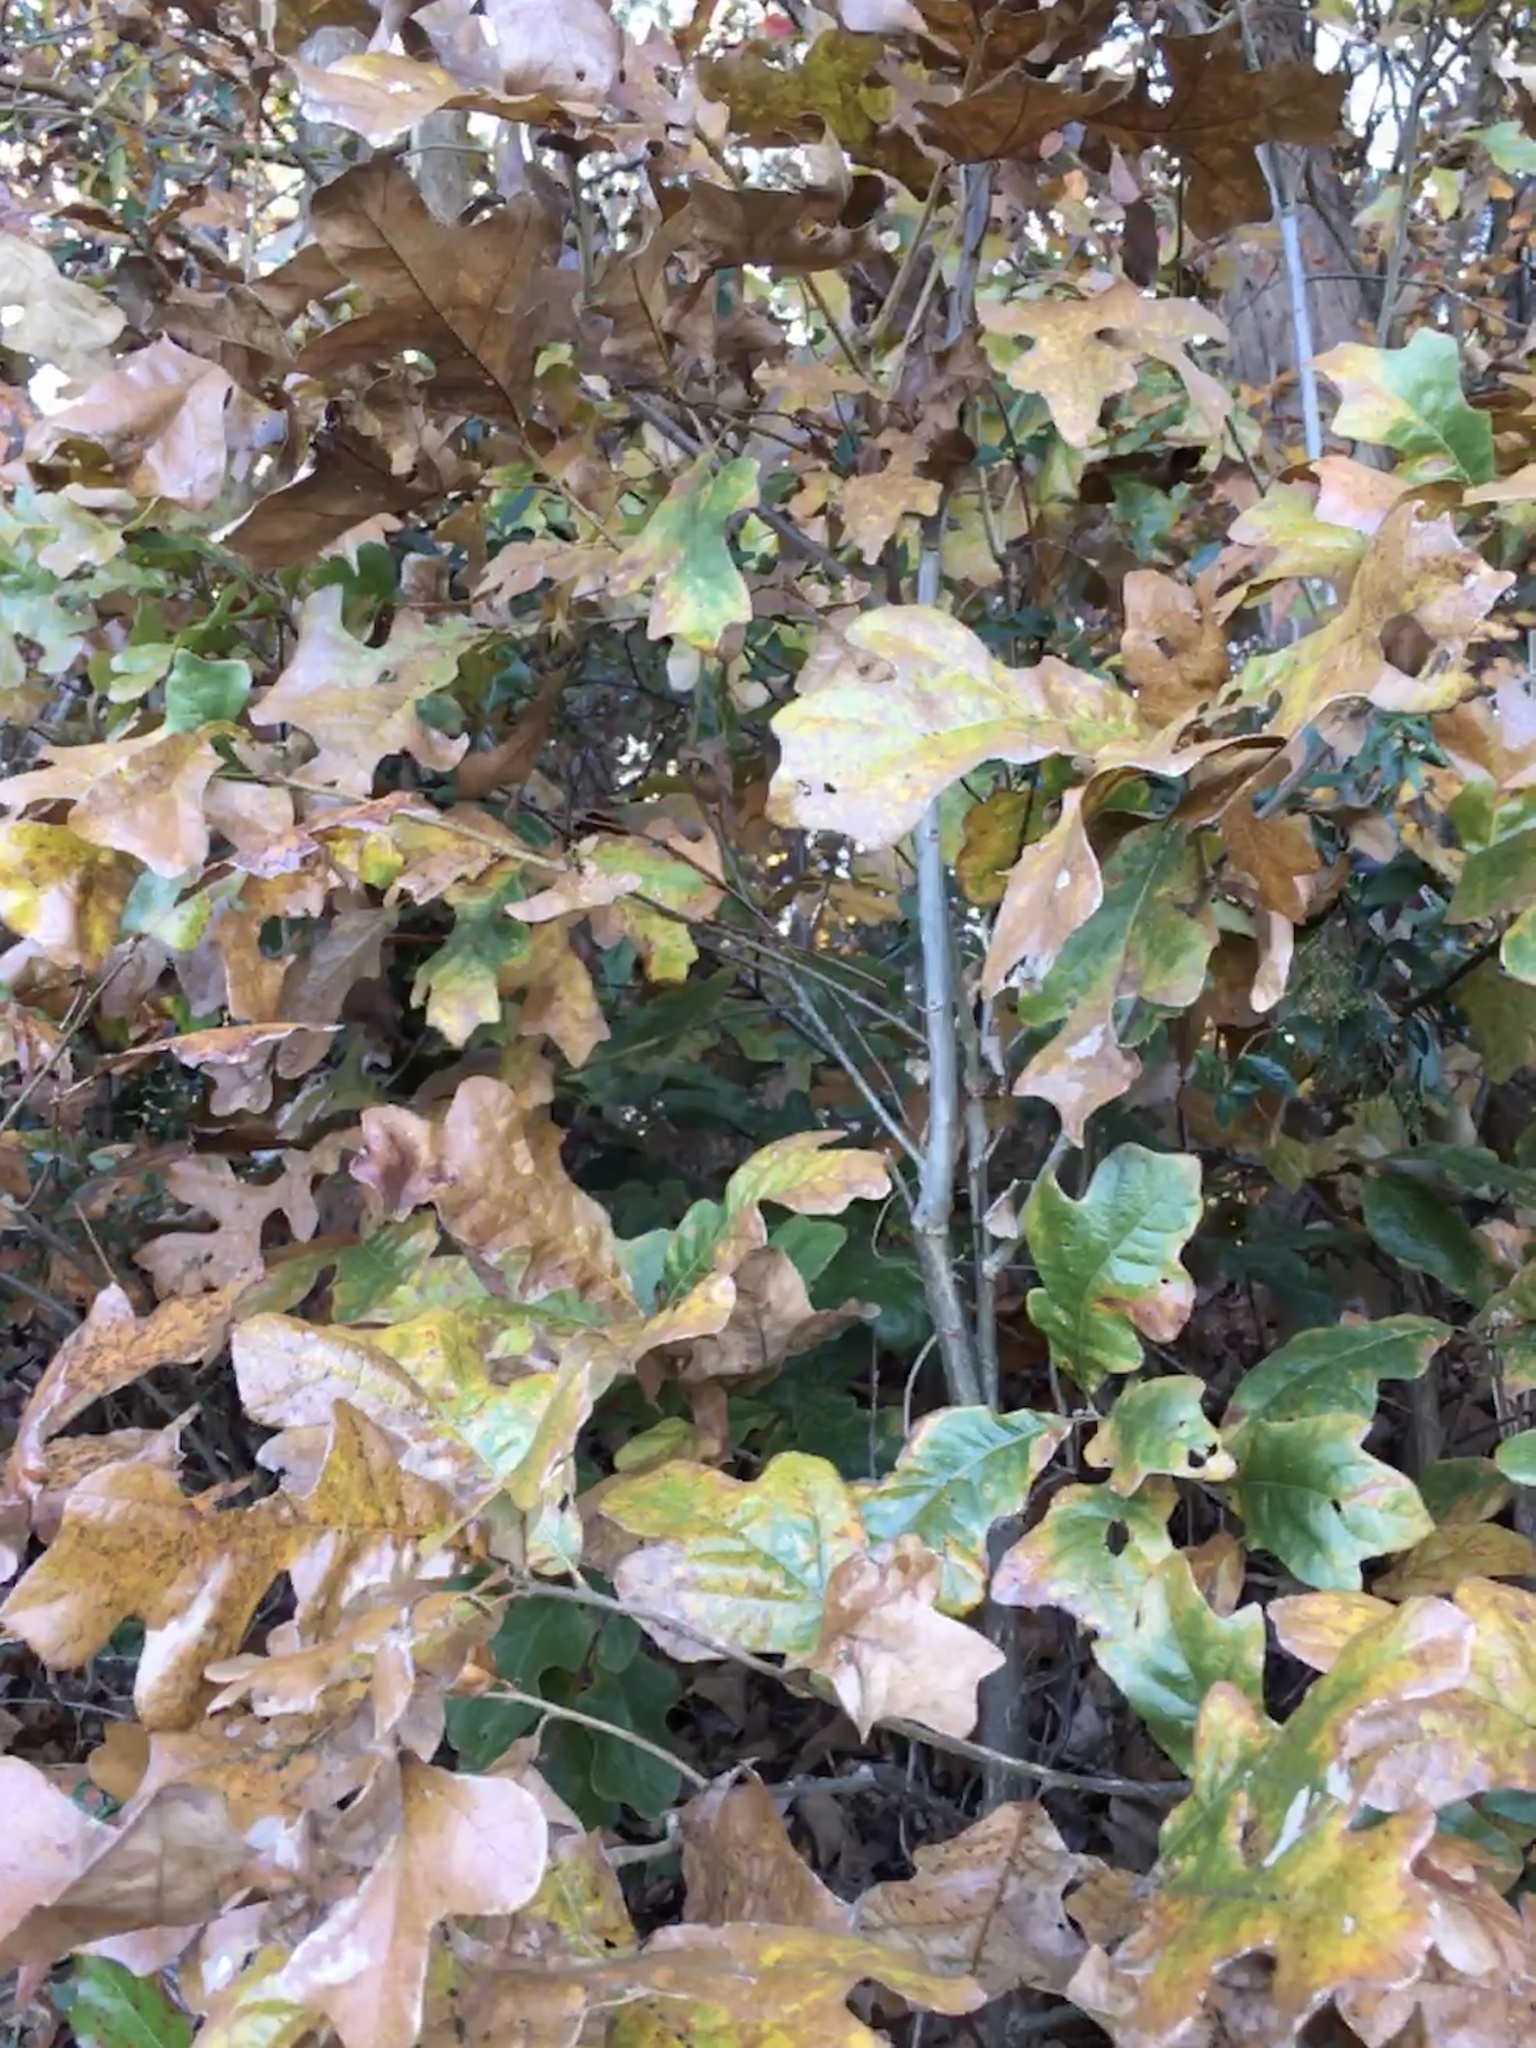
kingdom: Plantae
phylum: Tracheophyta
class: Magnoliopsida
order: Fagales
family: Fagaceae
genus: Quercus
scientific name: Quercus stellata
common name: Post oak
